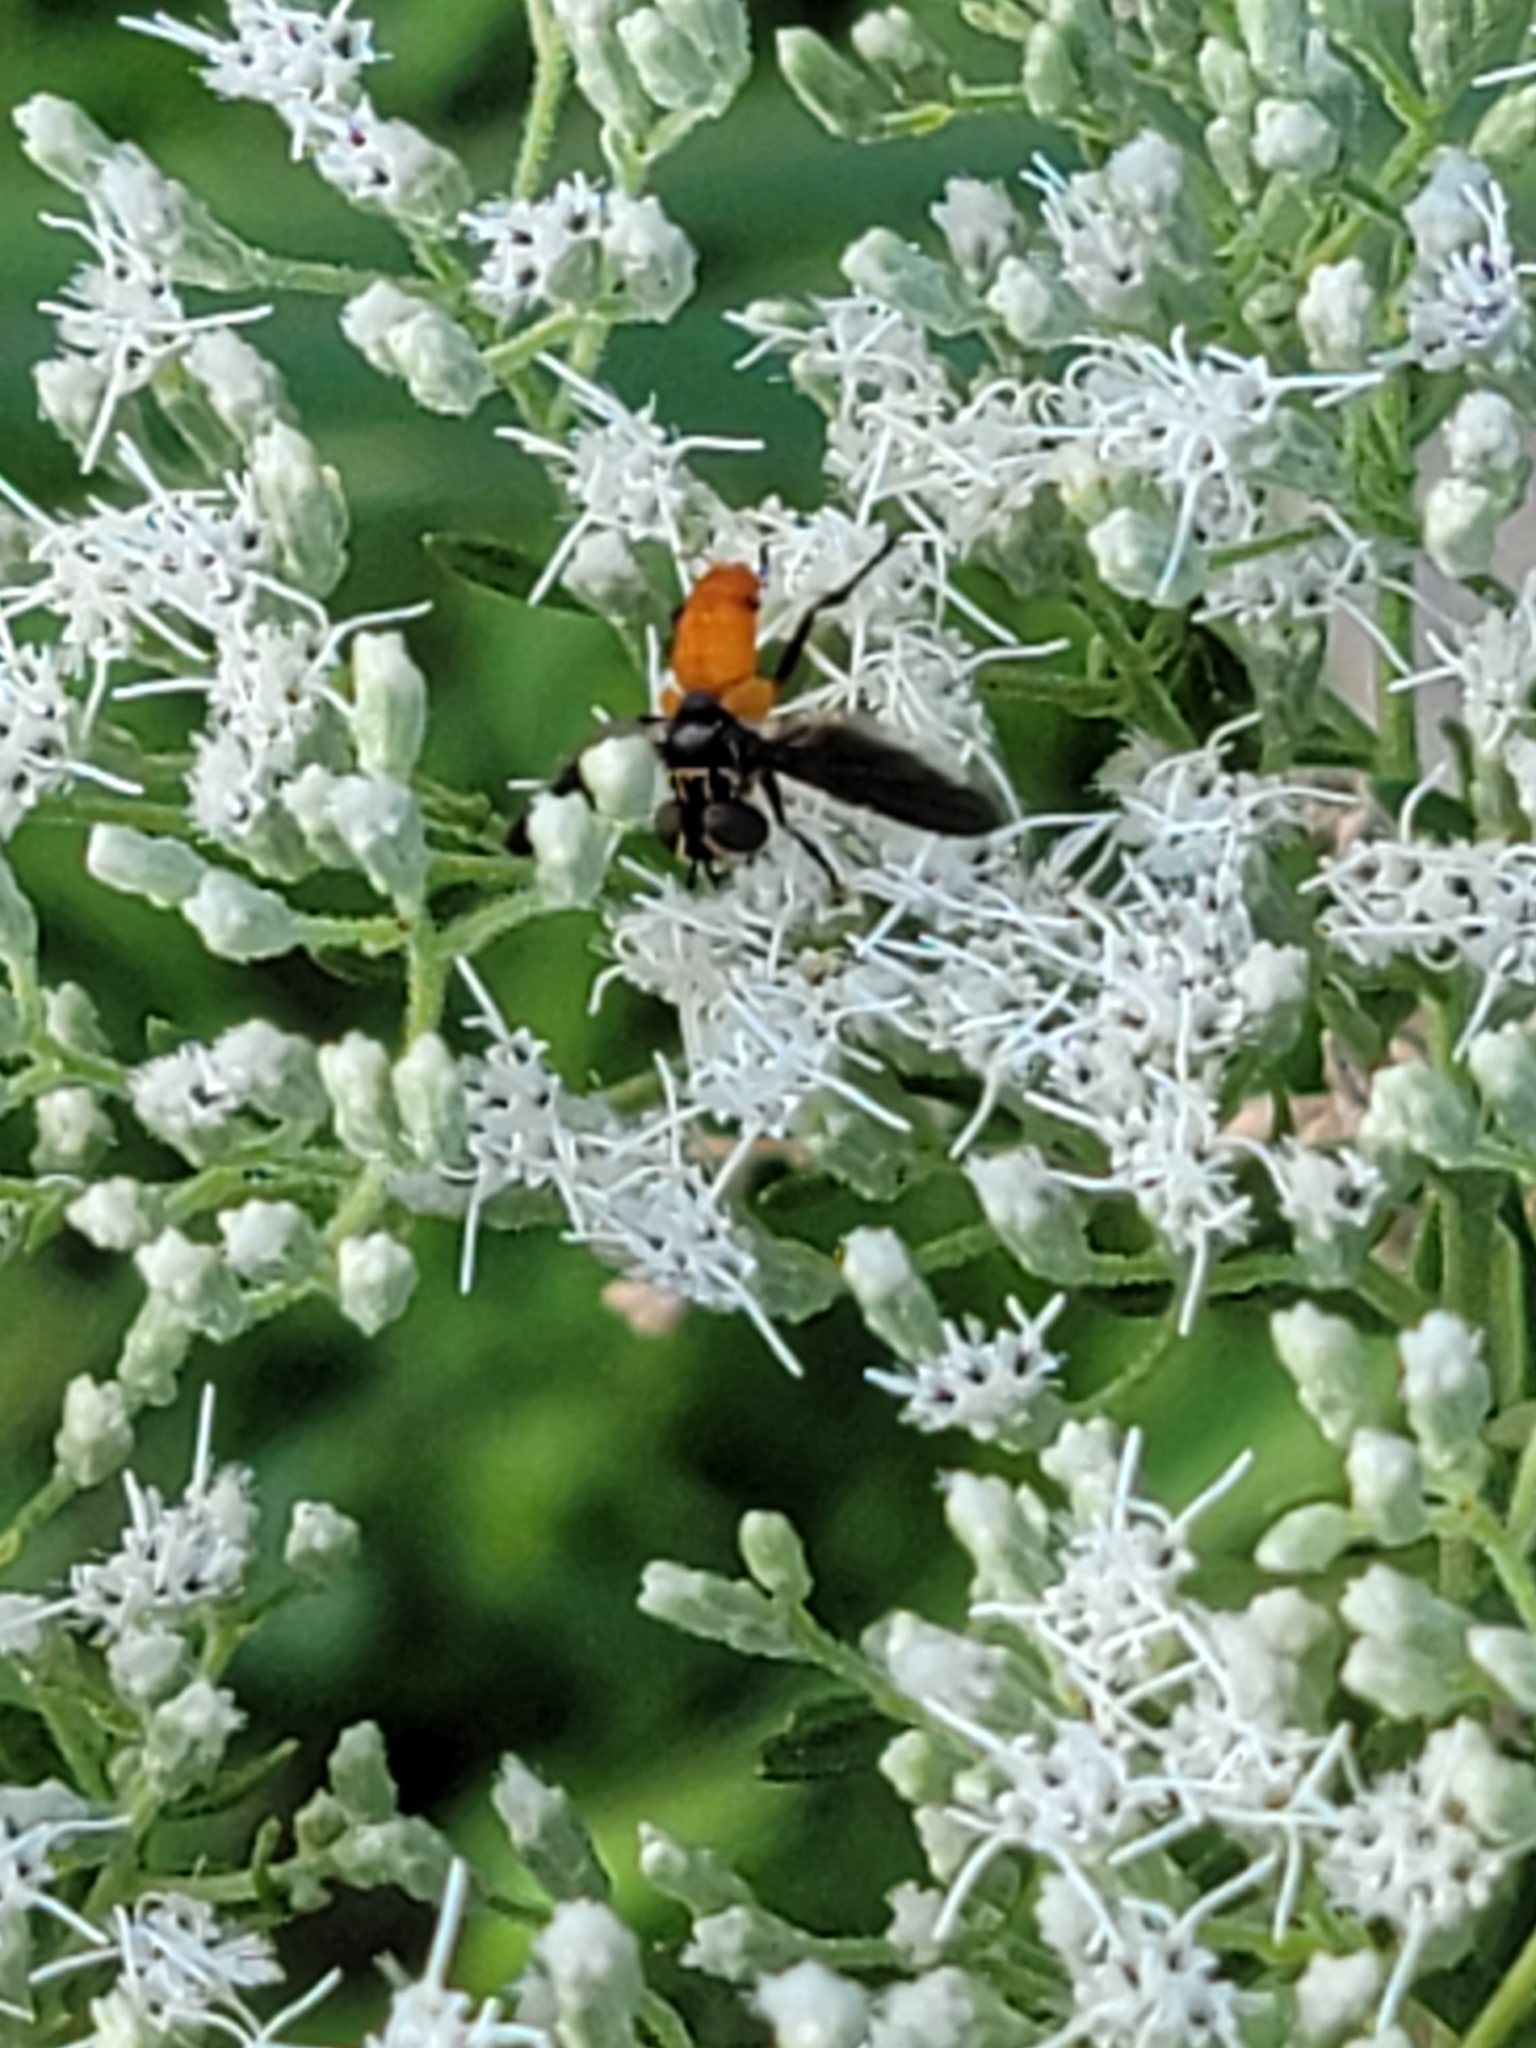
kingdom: Animalia
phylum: Arthropoda
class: Insecta
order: Diptera
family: Tachinidae
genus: Trichopoda
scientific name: Trichopoda pennipes
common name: Tachinid fly
